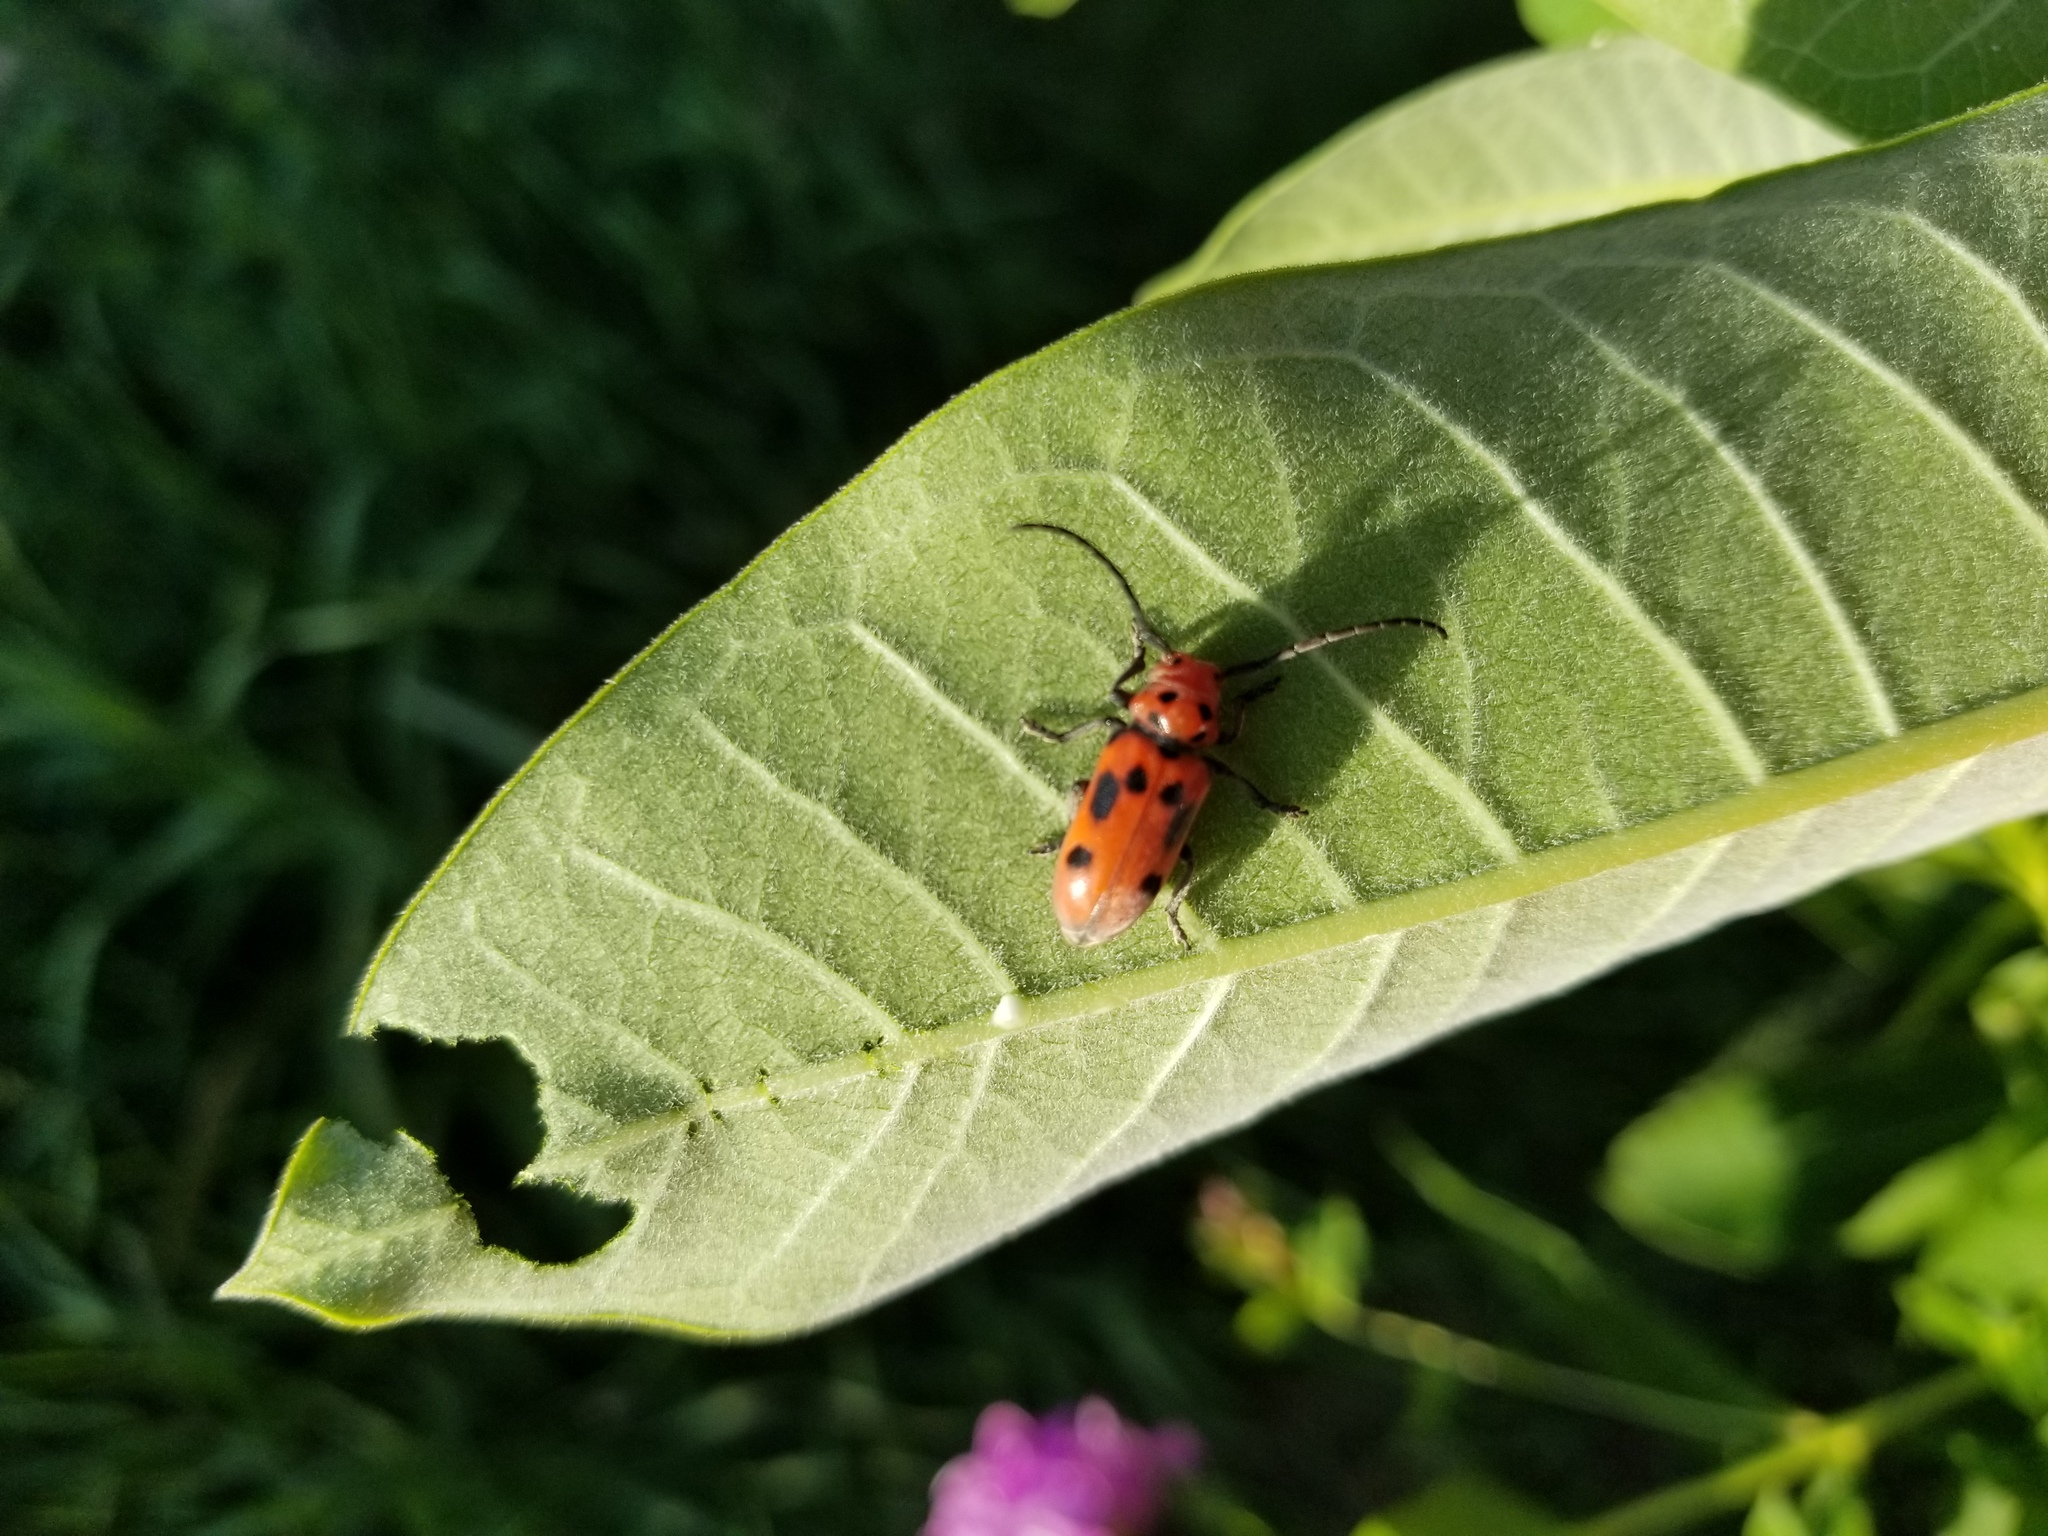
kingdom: Animalia
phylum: Arthropoda
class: Insecta
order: Coleoptera
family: Cerambycidae
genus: Tetraopes
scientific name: Tetraopes tetrophthalmus
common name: Red milkweed beetle
